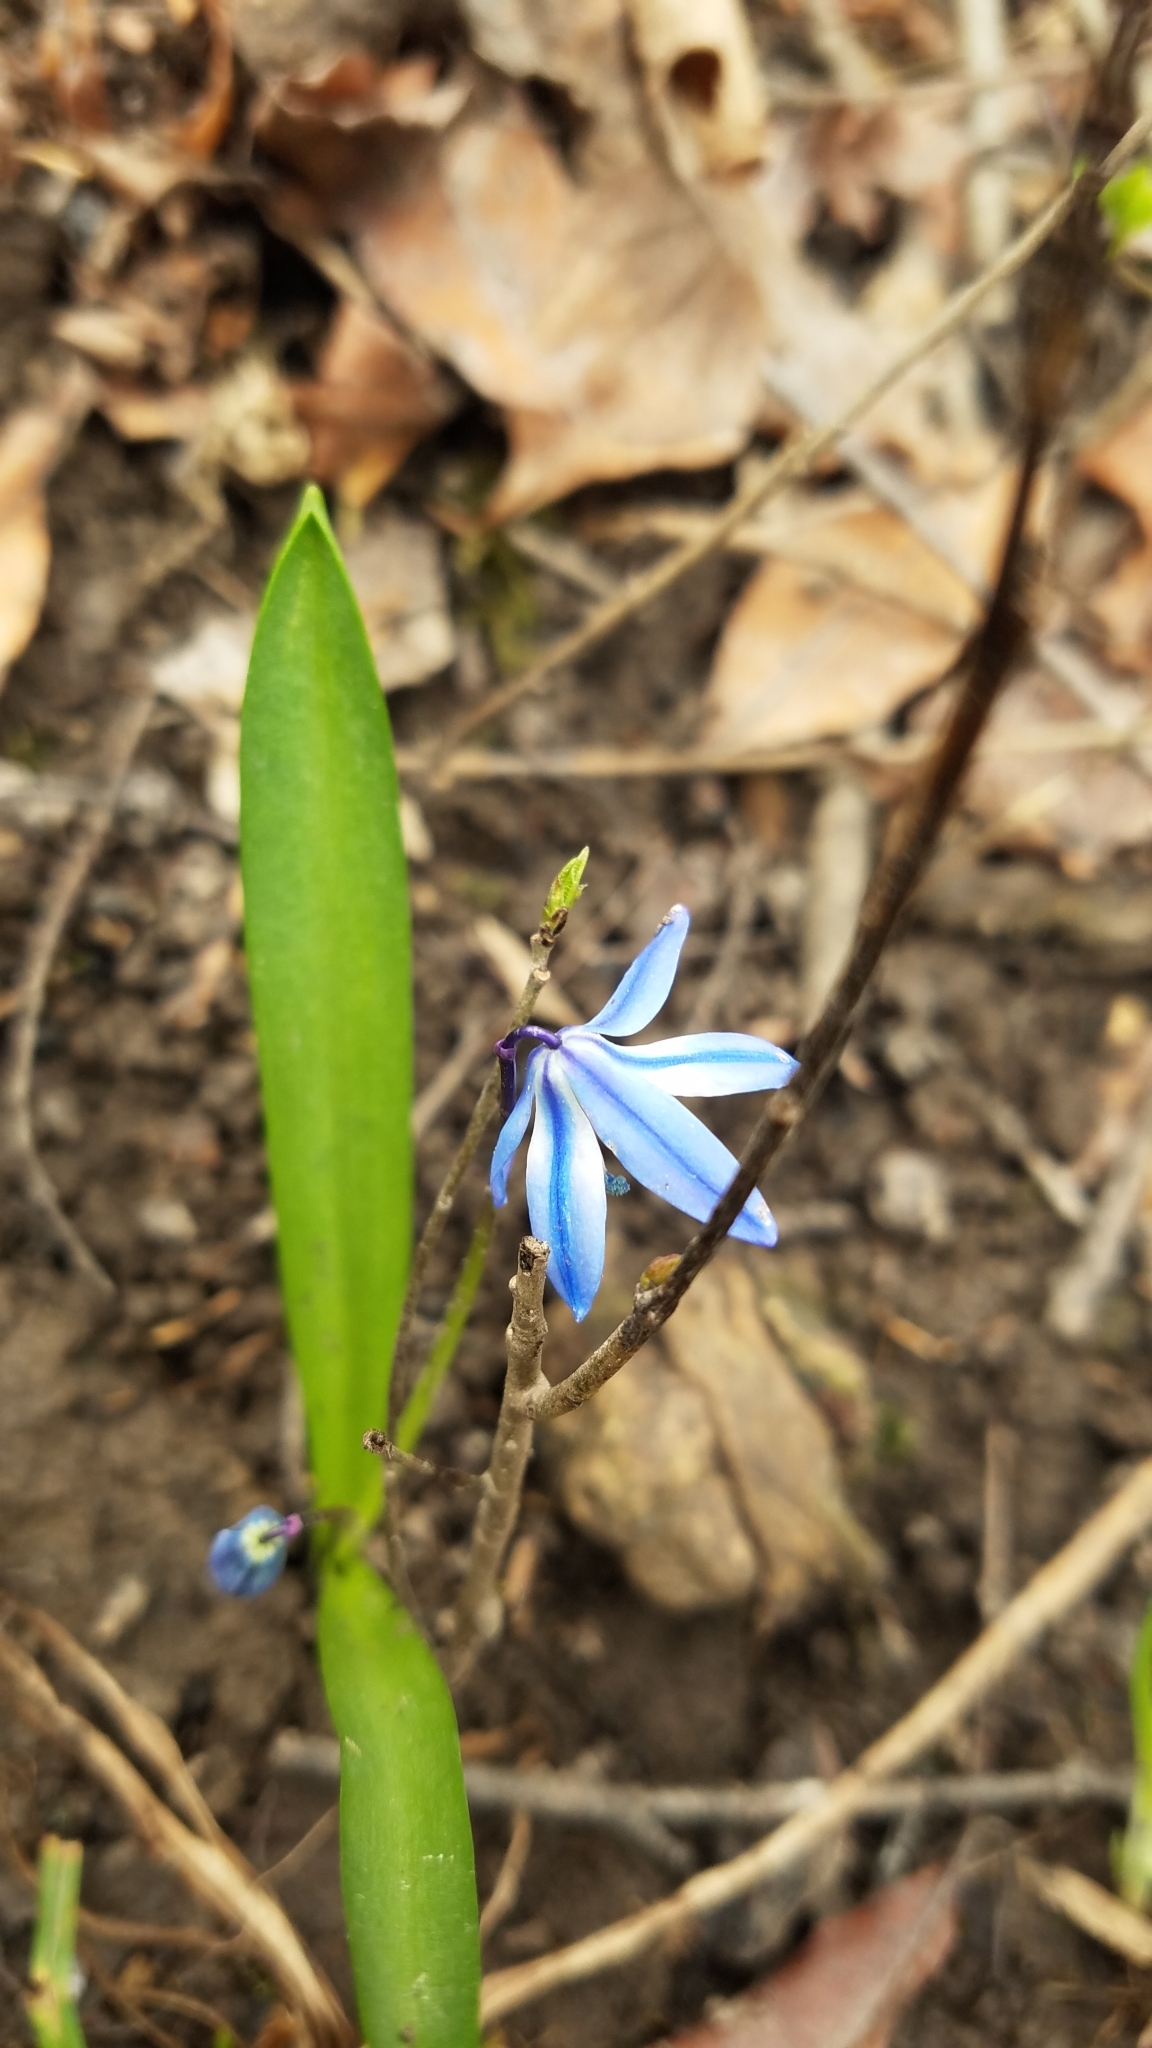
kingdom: Plantae
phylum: Tracheophyta
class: Liliopsida
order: Asparagales
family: Asparagaceae
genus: Scilla
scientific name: Scilla siberica
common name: Siberian squill
